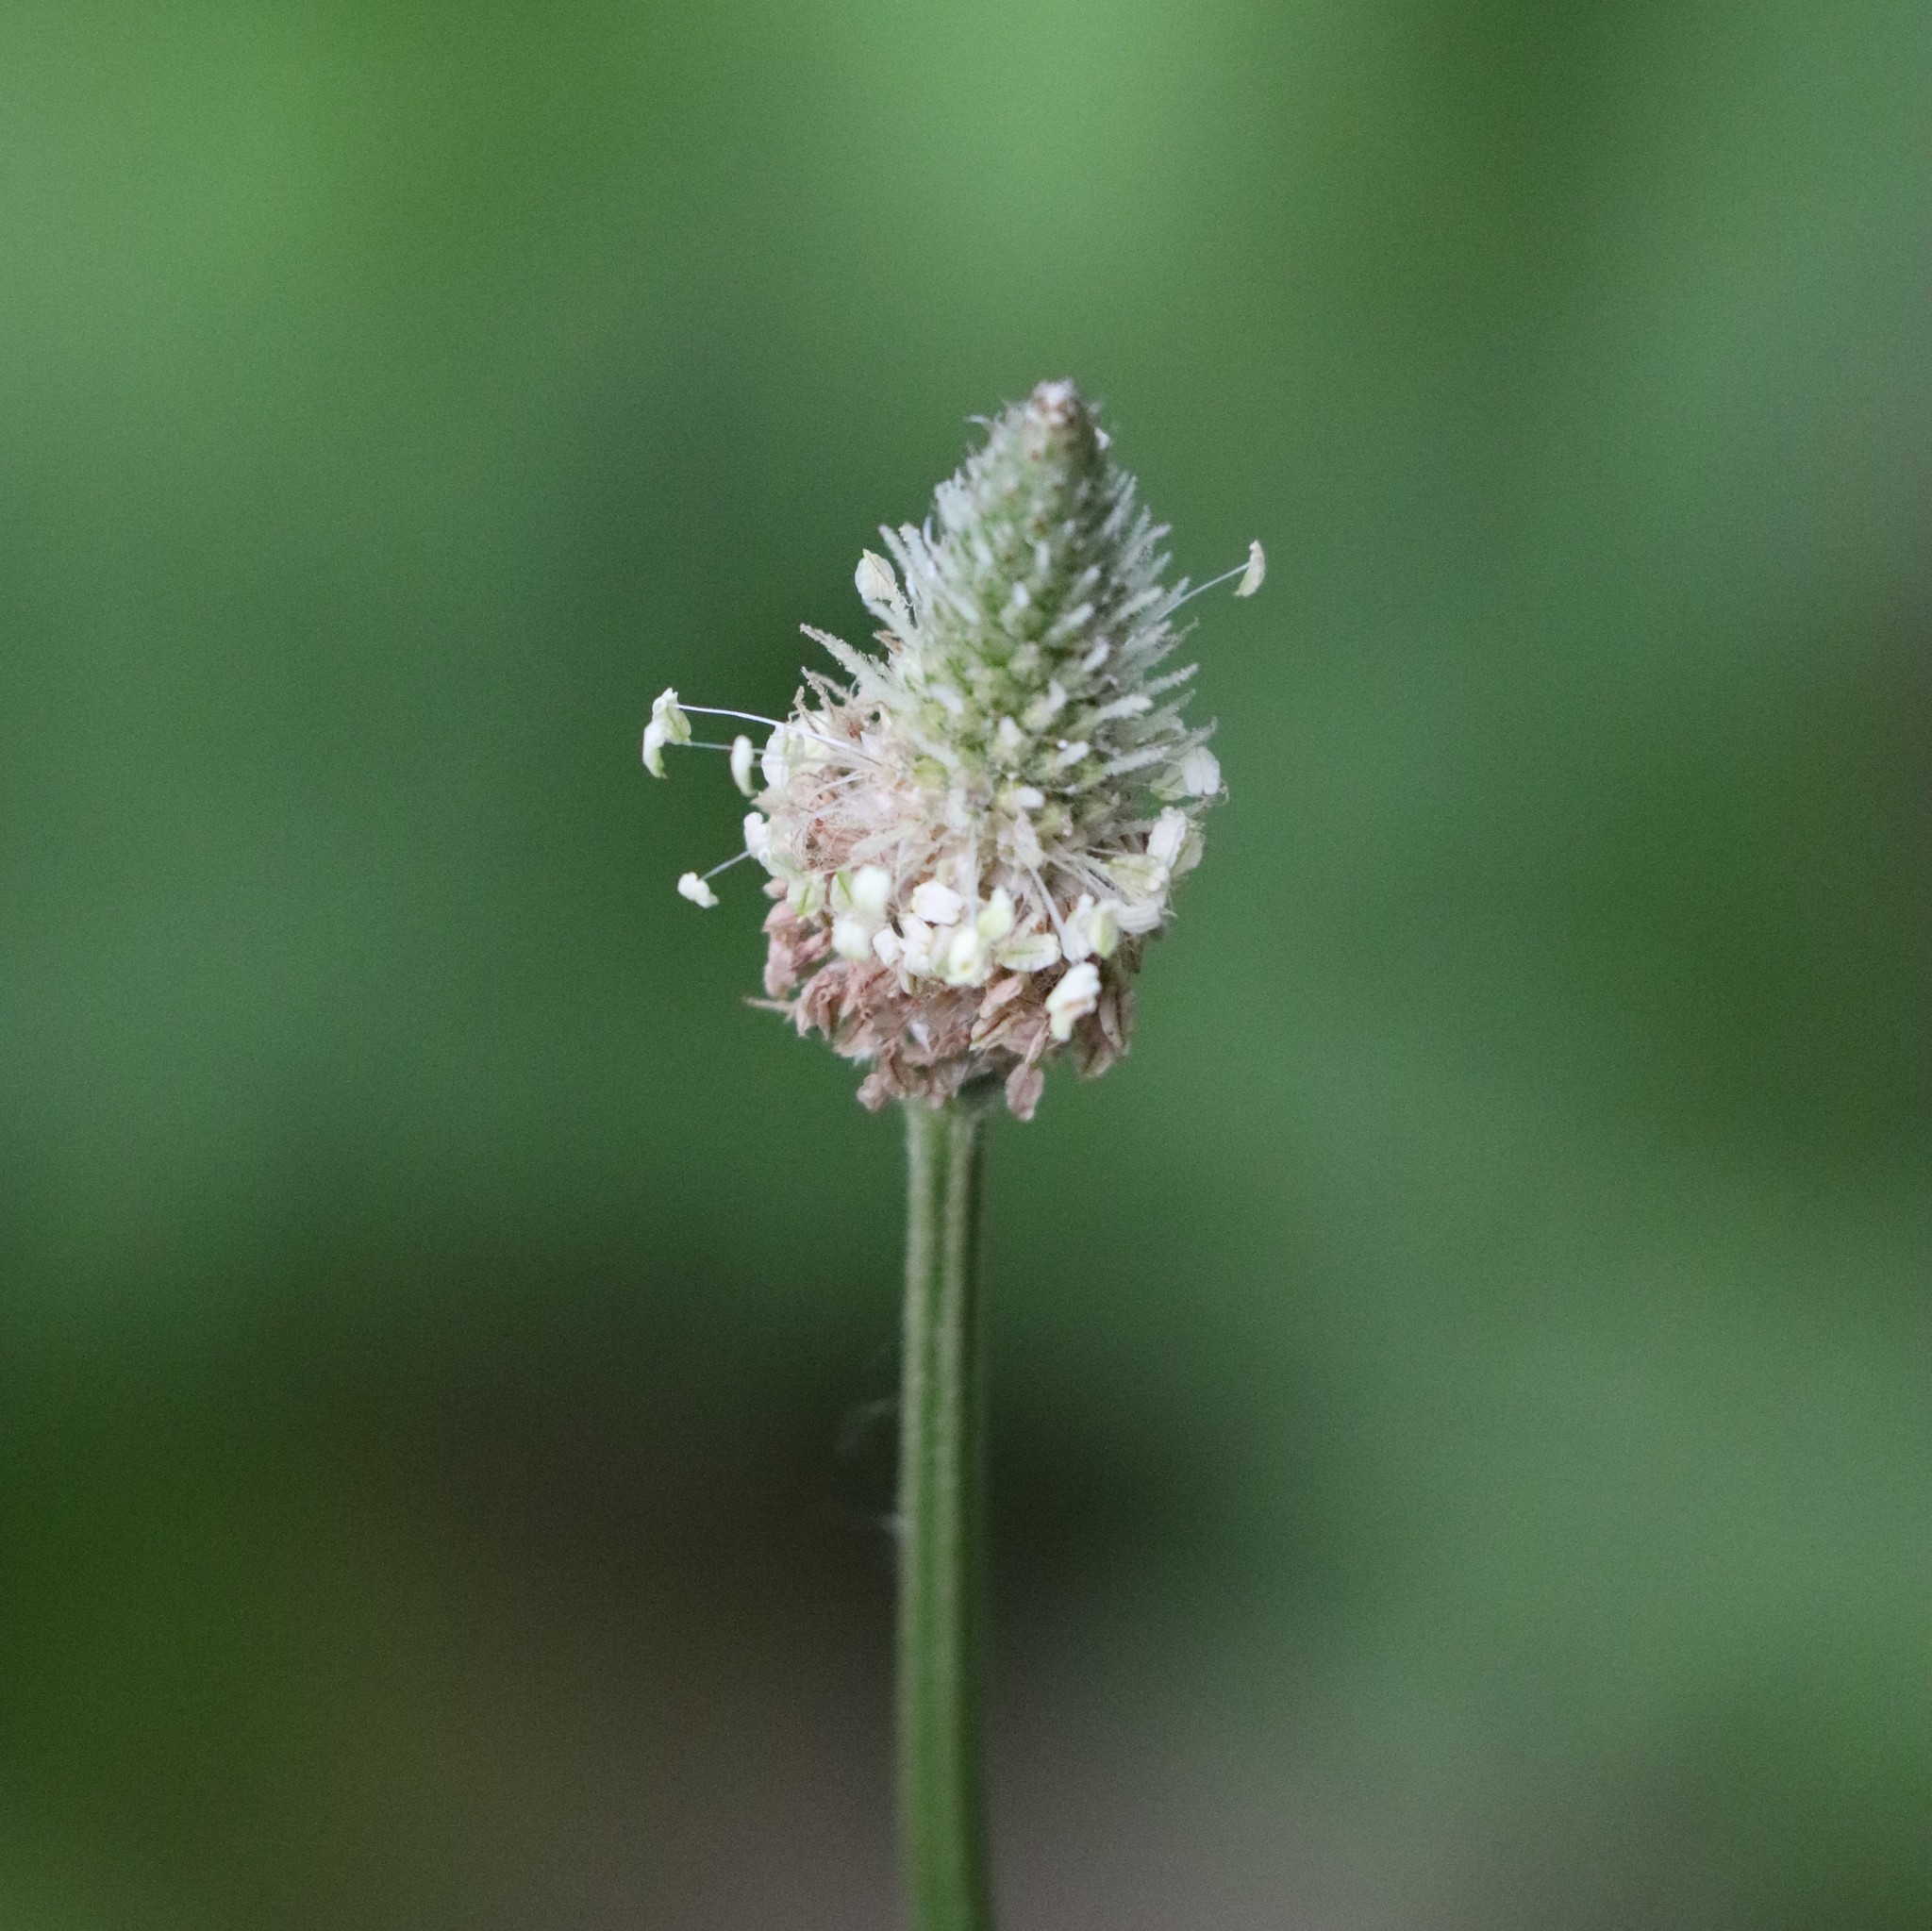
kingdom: Plantae
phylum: Tracheophyta
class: Magnoliopsida
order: Lamiales
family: Plantaginaceae
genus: Plantago
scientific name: Plantago lanceolata
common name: Ribwort plantain
